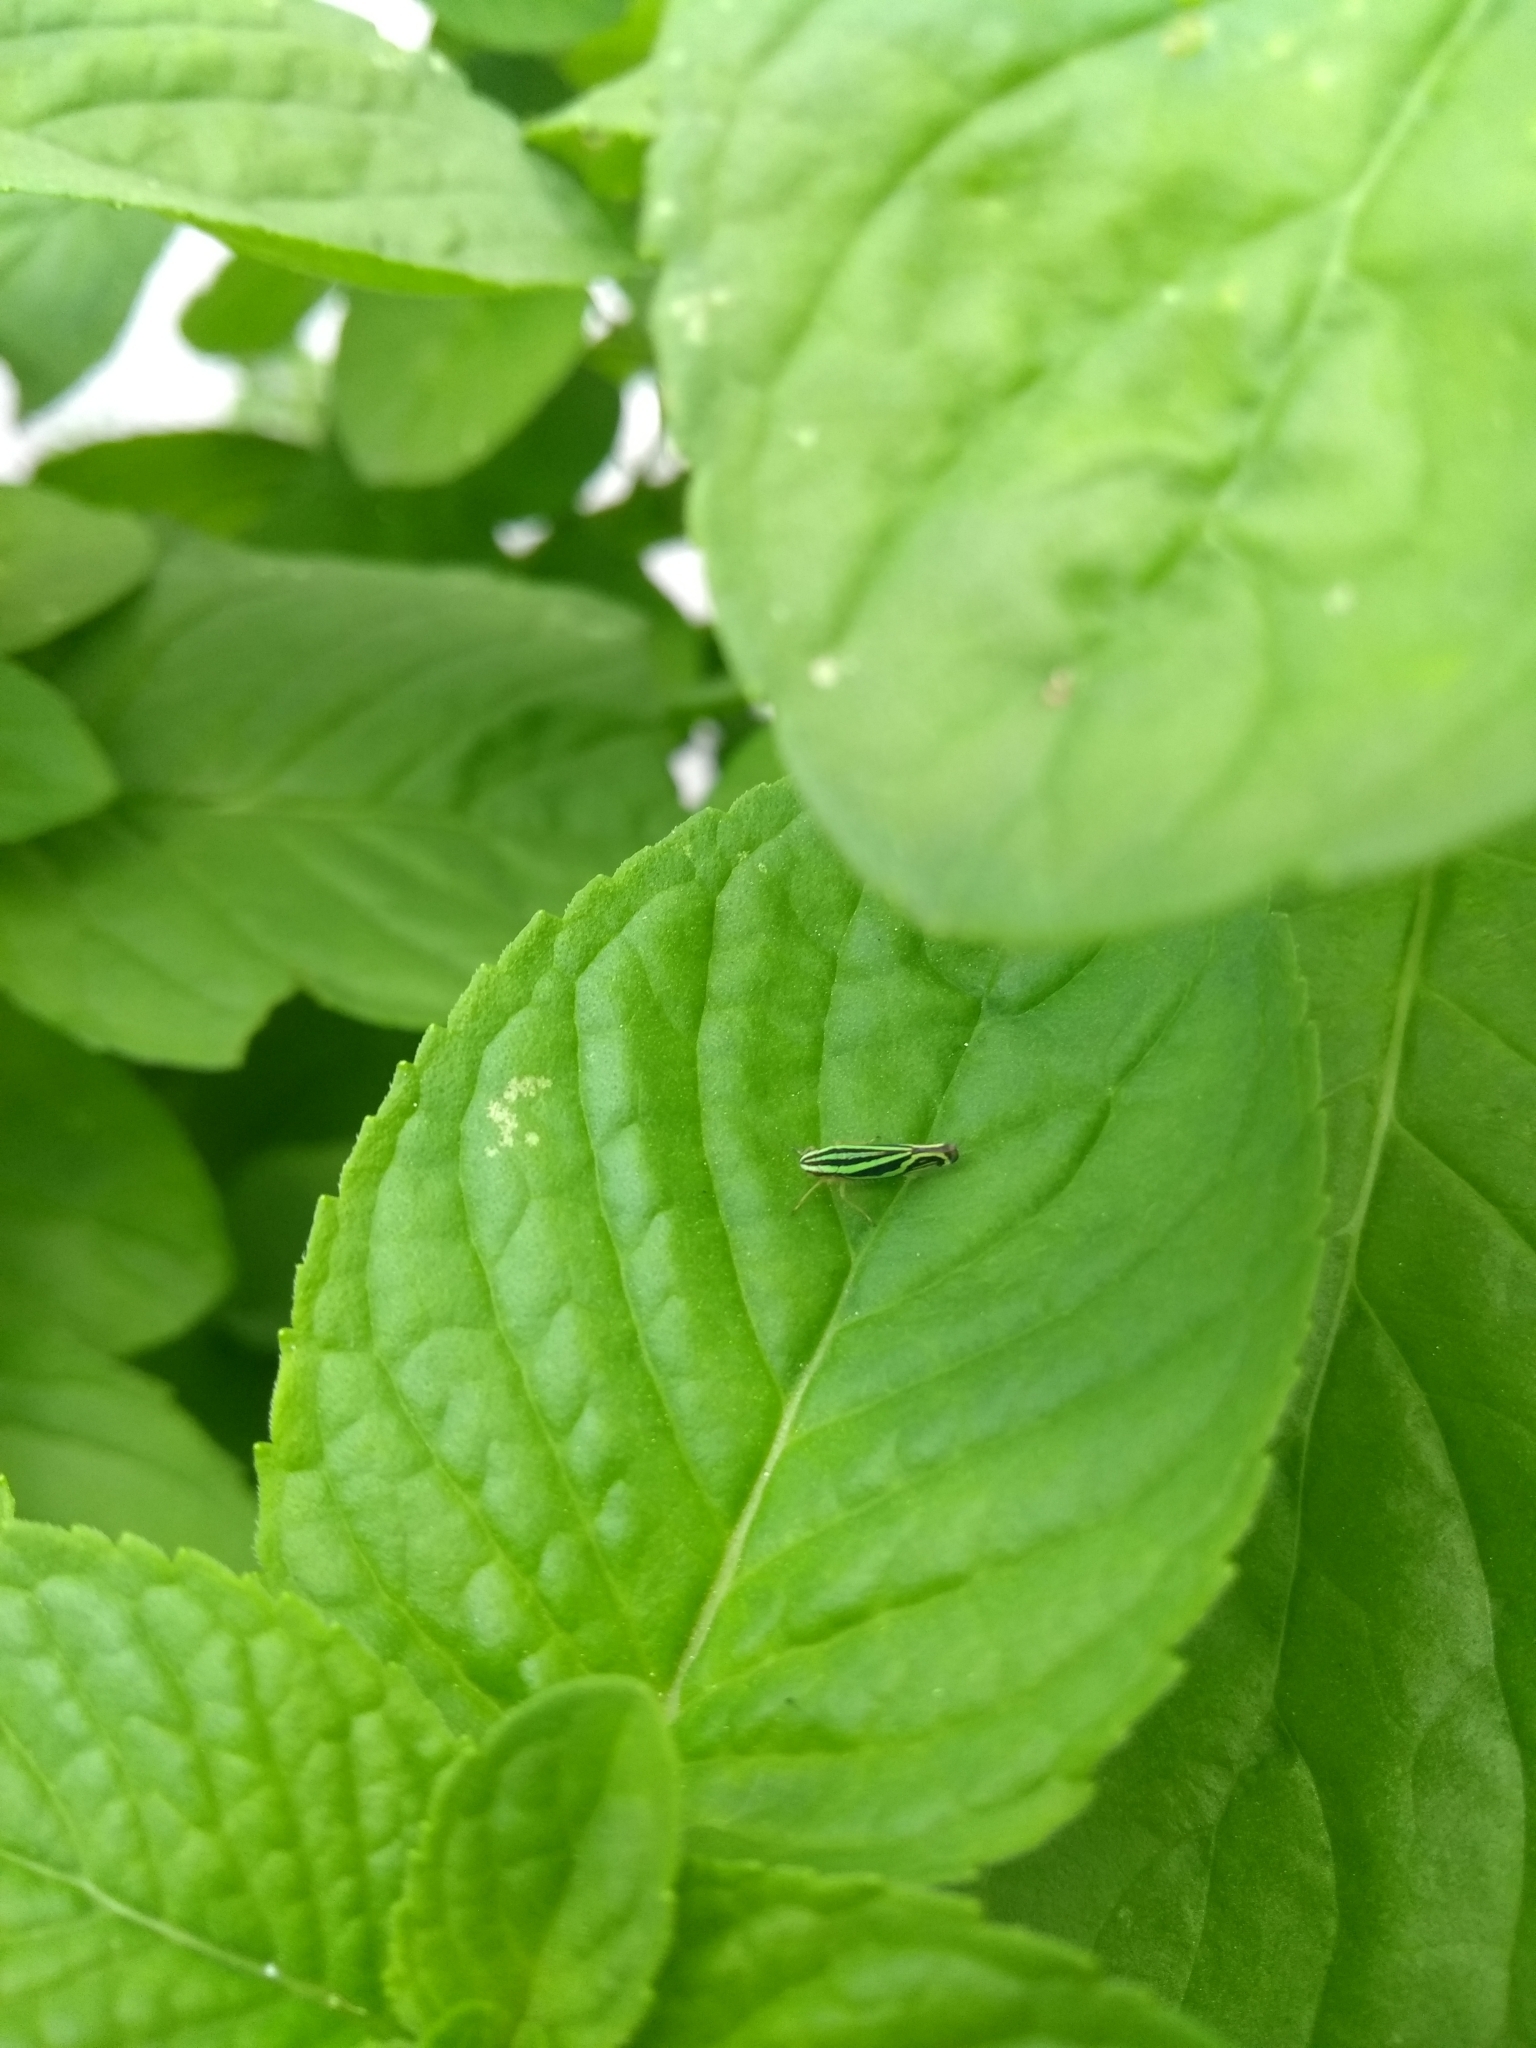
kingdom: Animalia
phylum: Arthropoda
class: Insecta
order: Hemiptera
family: Cicadellidae
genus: Sibovia
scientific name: Sibovia sagata
